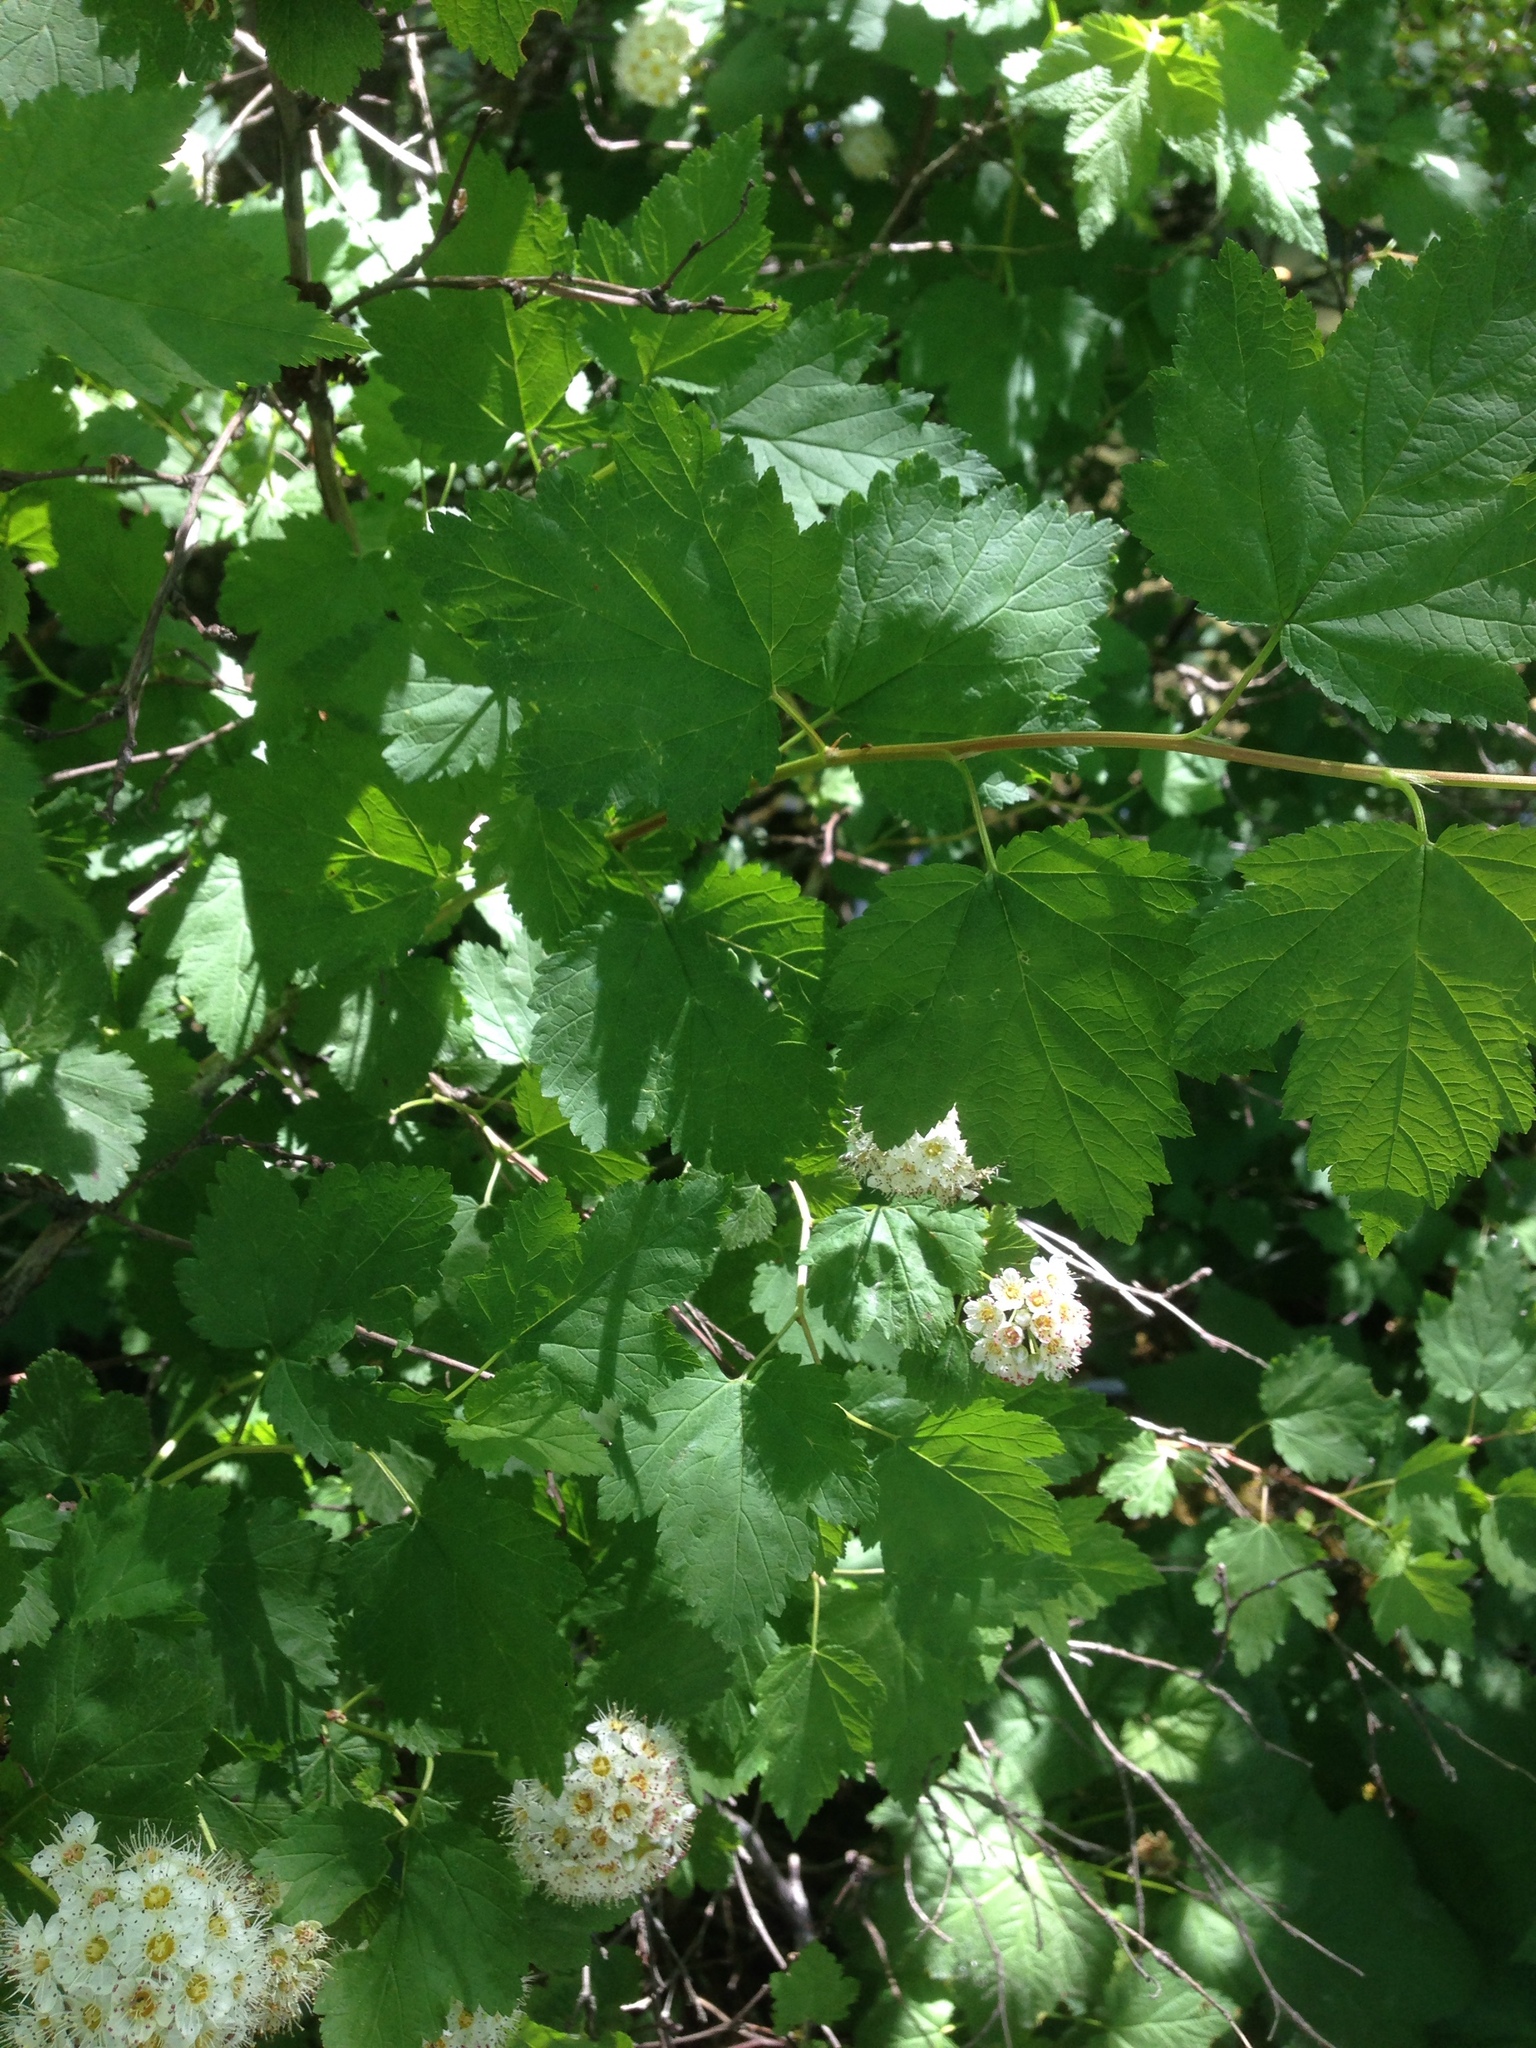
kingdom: Plantae
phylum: Tracheophyta
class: Magnoliopsida
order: Rosales
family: Rosaceae
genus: Physocarpus
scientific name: Physocarpus capitatus
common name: Pacific ninebark
